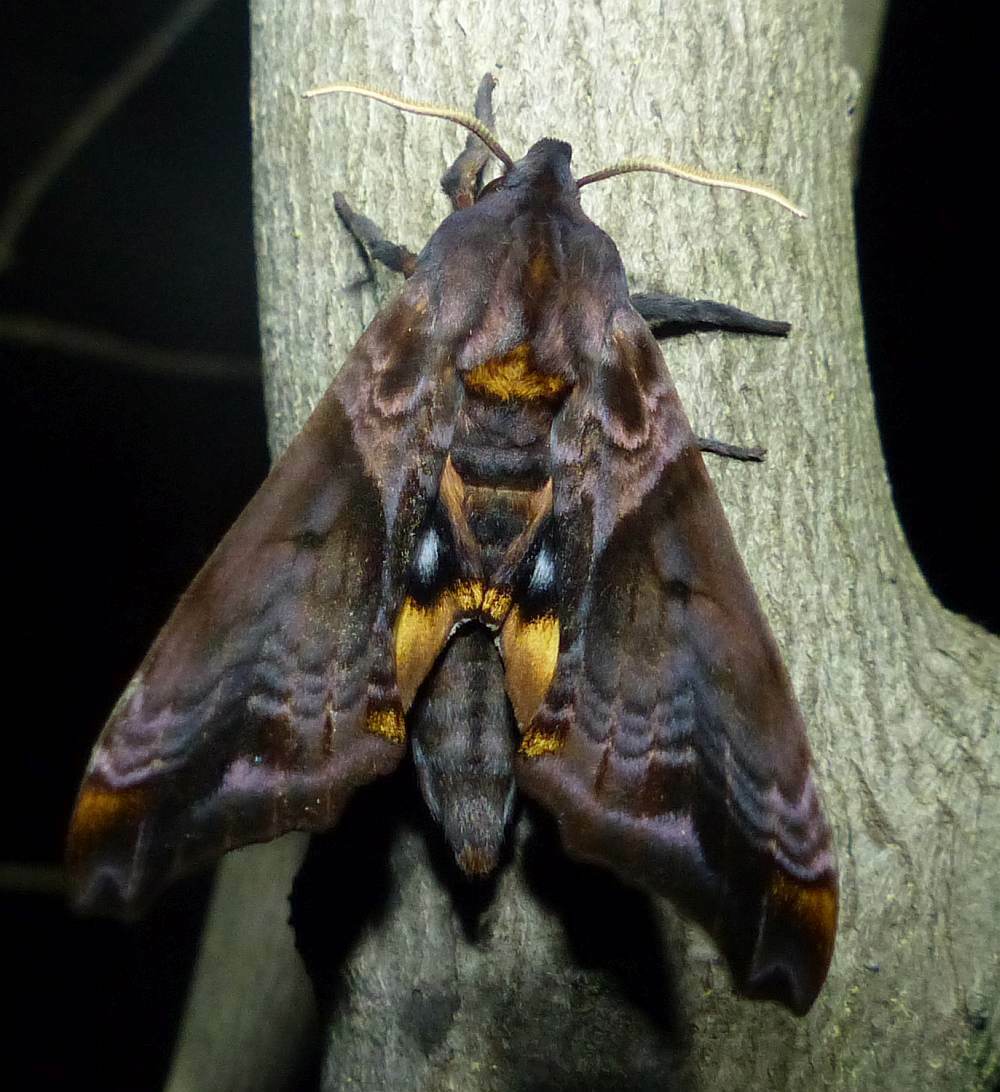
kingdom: Animalia
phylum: Arthropoda
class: Insecta
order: Lepidoptera
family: Sphingidae
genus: Paonias
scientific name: Paonias myops
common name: Small-eyed sphinx
